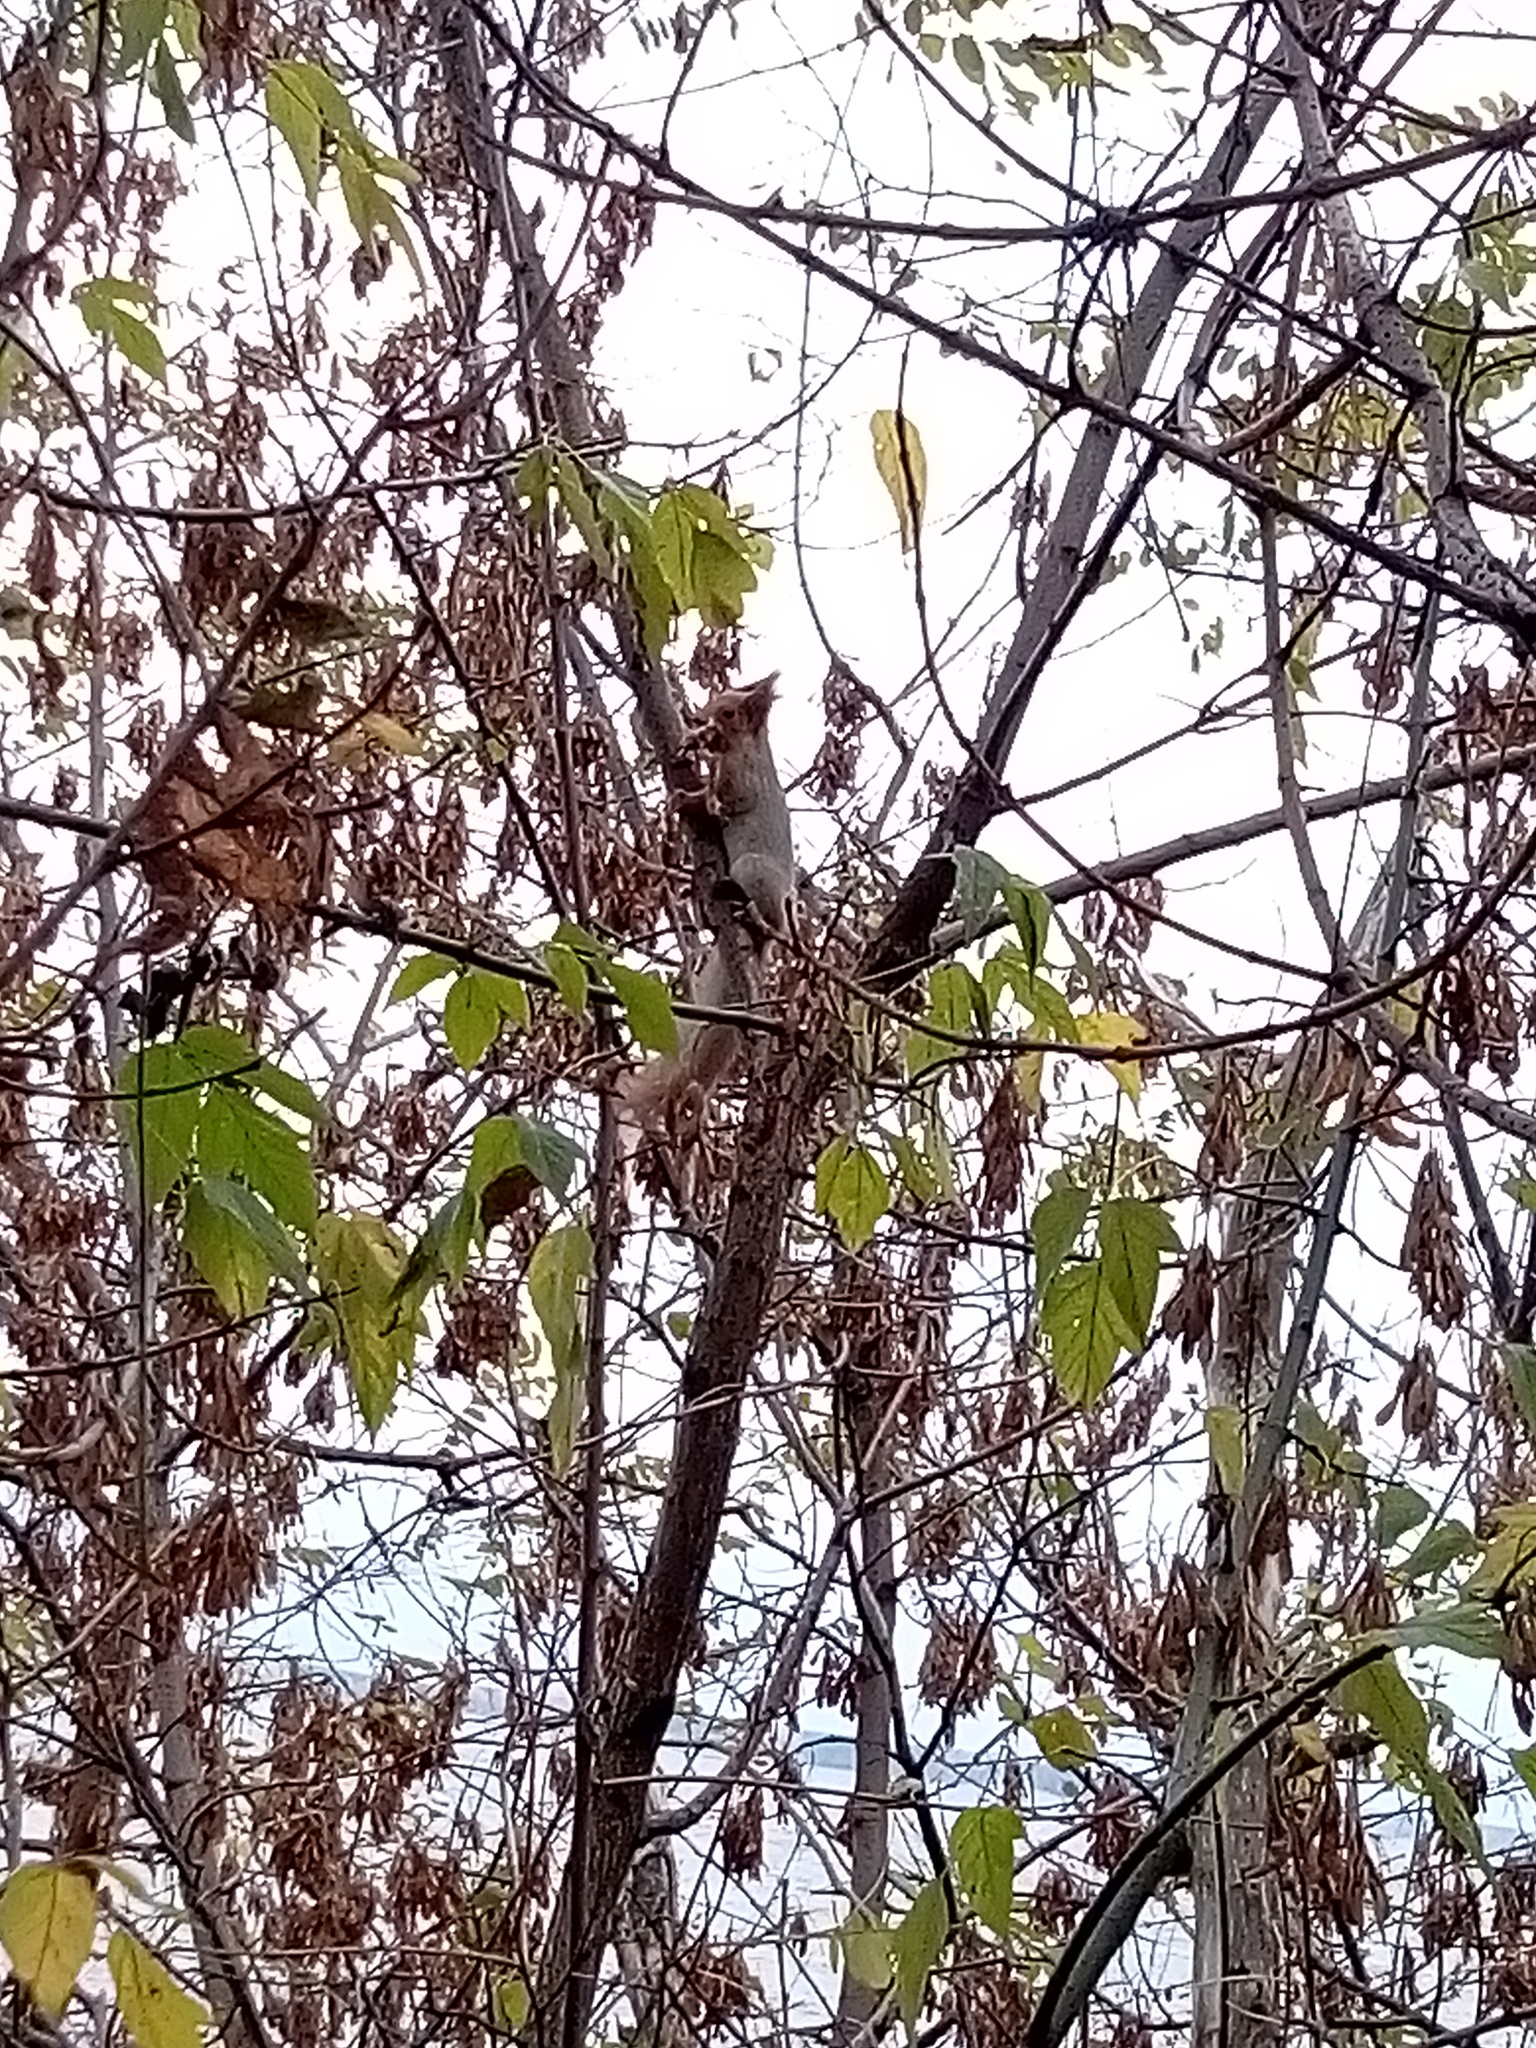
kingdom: Animalia
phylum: Chordata
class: Mammalia
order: Rodentia
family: Sciuridae
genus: Sciurus
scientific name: Sciurus vulgaris
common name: Eurasian red squirrel
